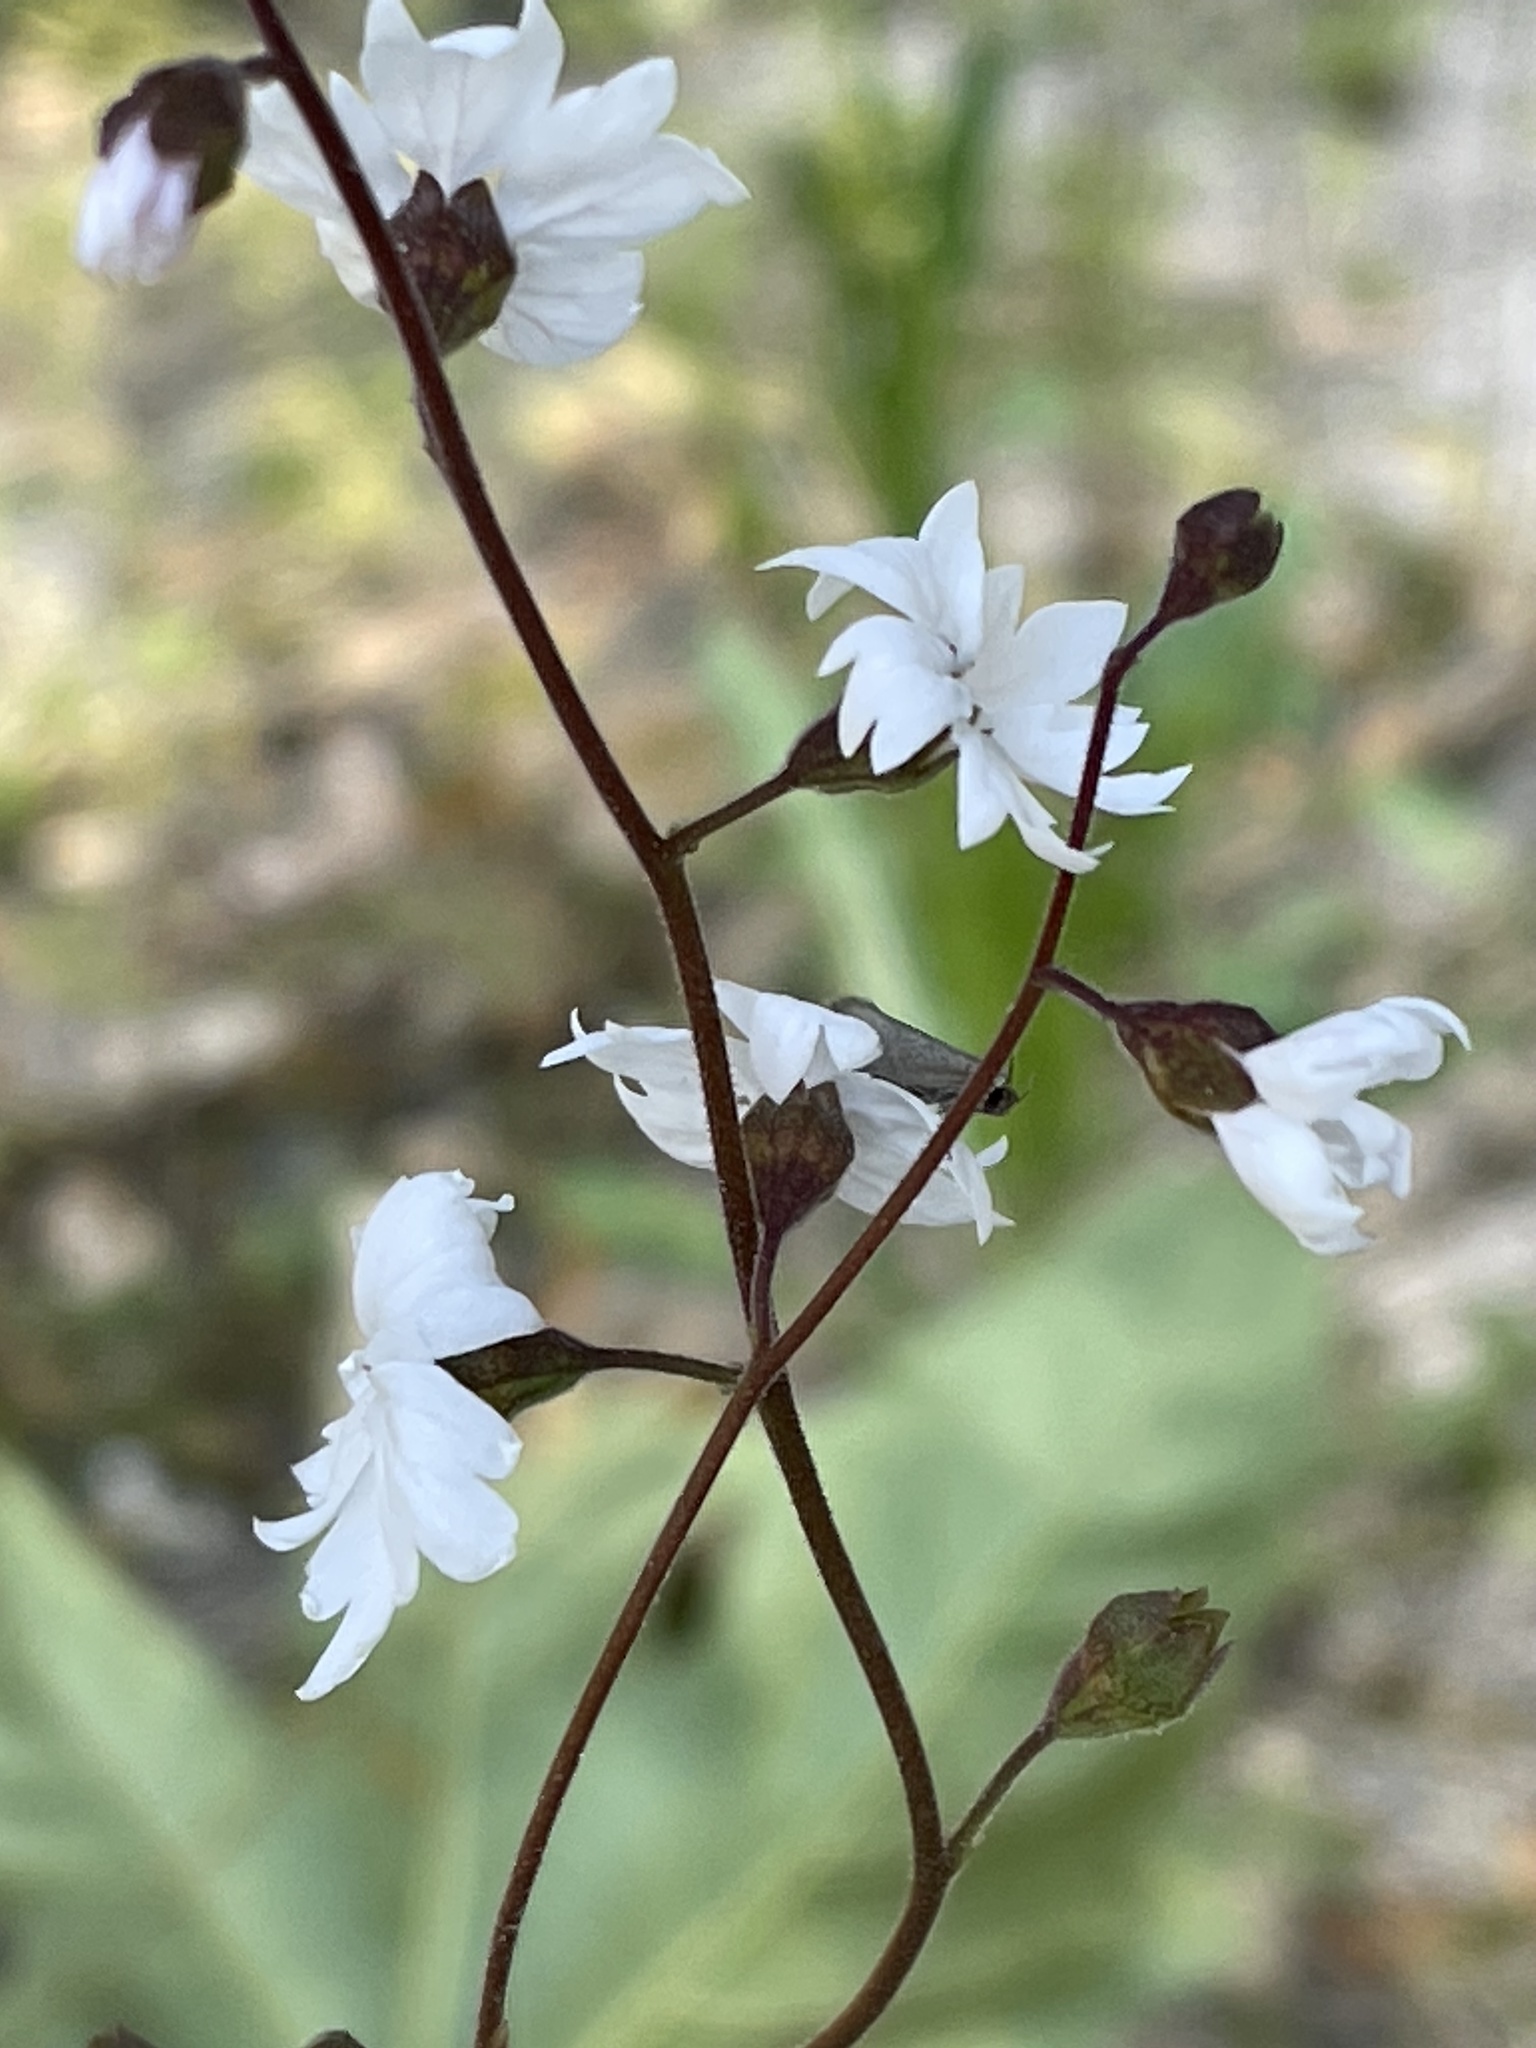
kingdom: Plantae
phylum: Tracheophyta
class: Magnoliopsida
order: Saxifragales
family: Saxifragaceae
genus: Lithophragma
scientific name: Lithophragma affine
